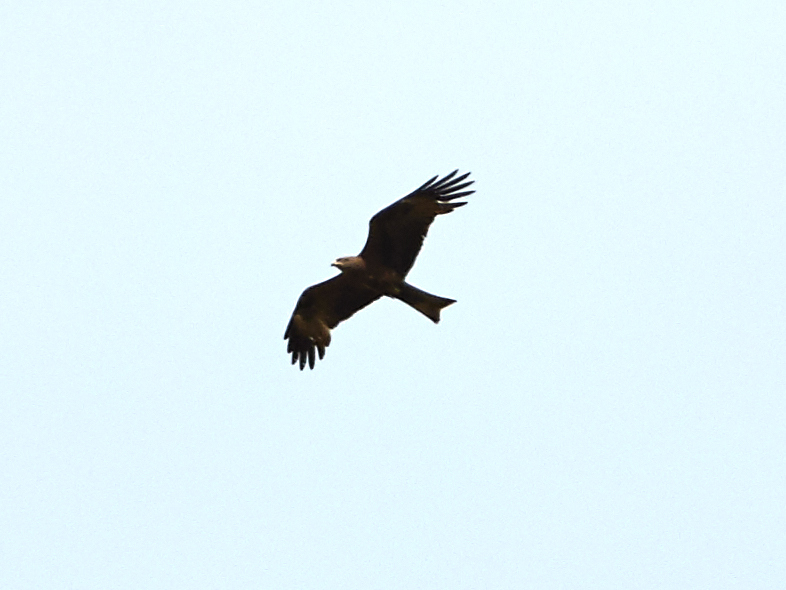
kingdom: Animalia
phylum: Chordata
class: Aves
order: Accipitriformes
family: Accipitridae
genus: Milvus
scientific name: Milvus migrans
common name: Black kite
